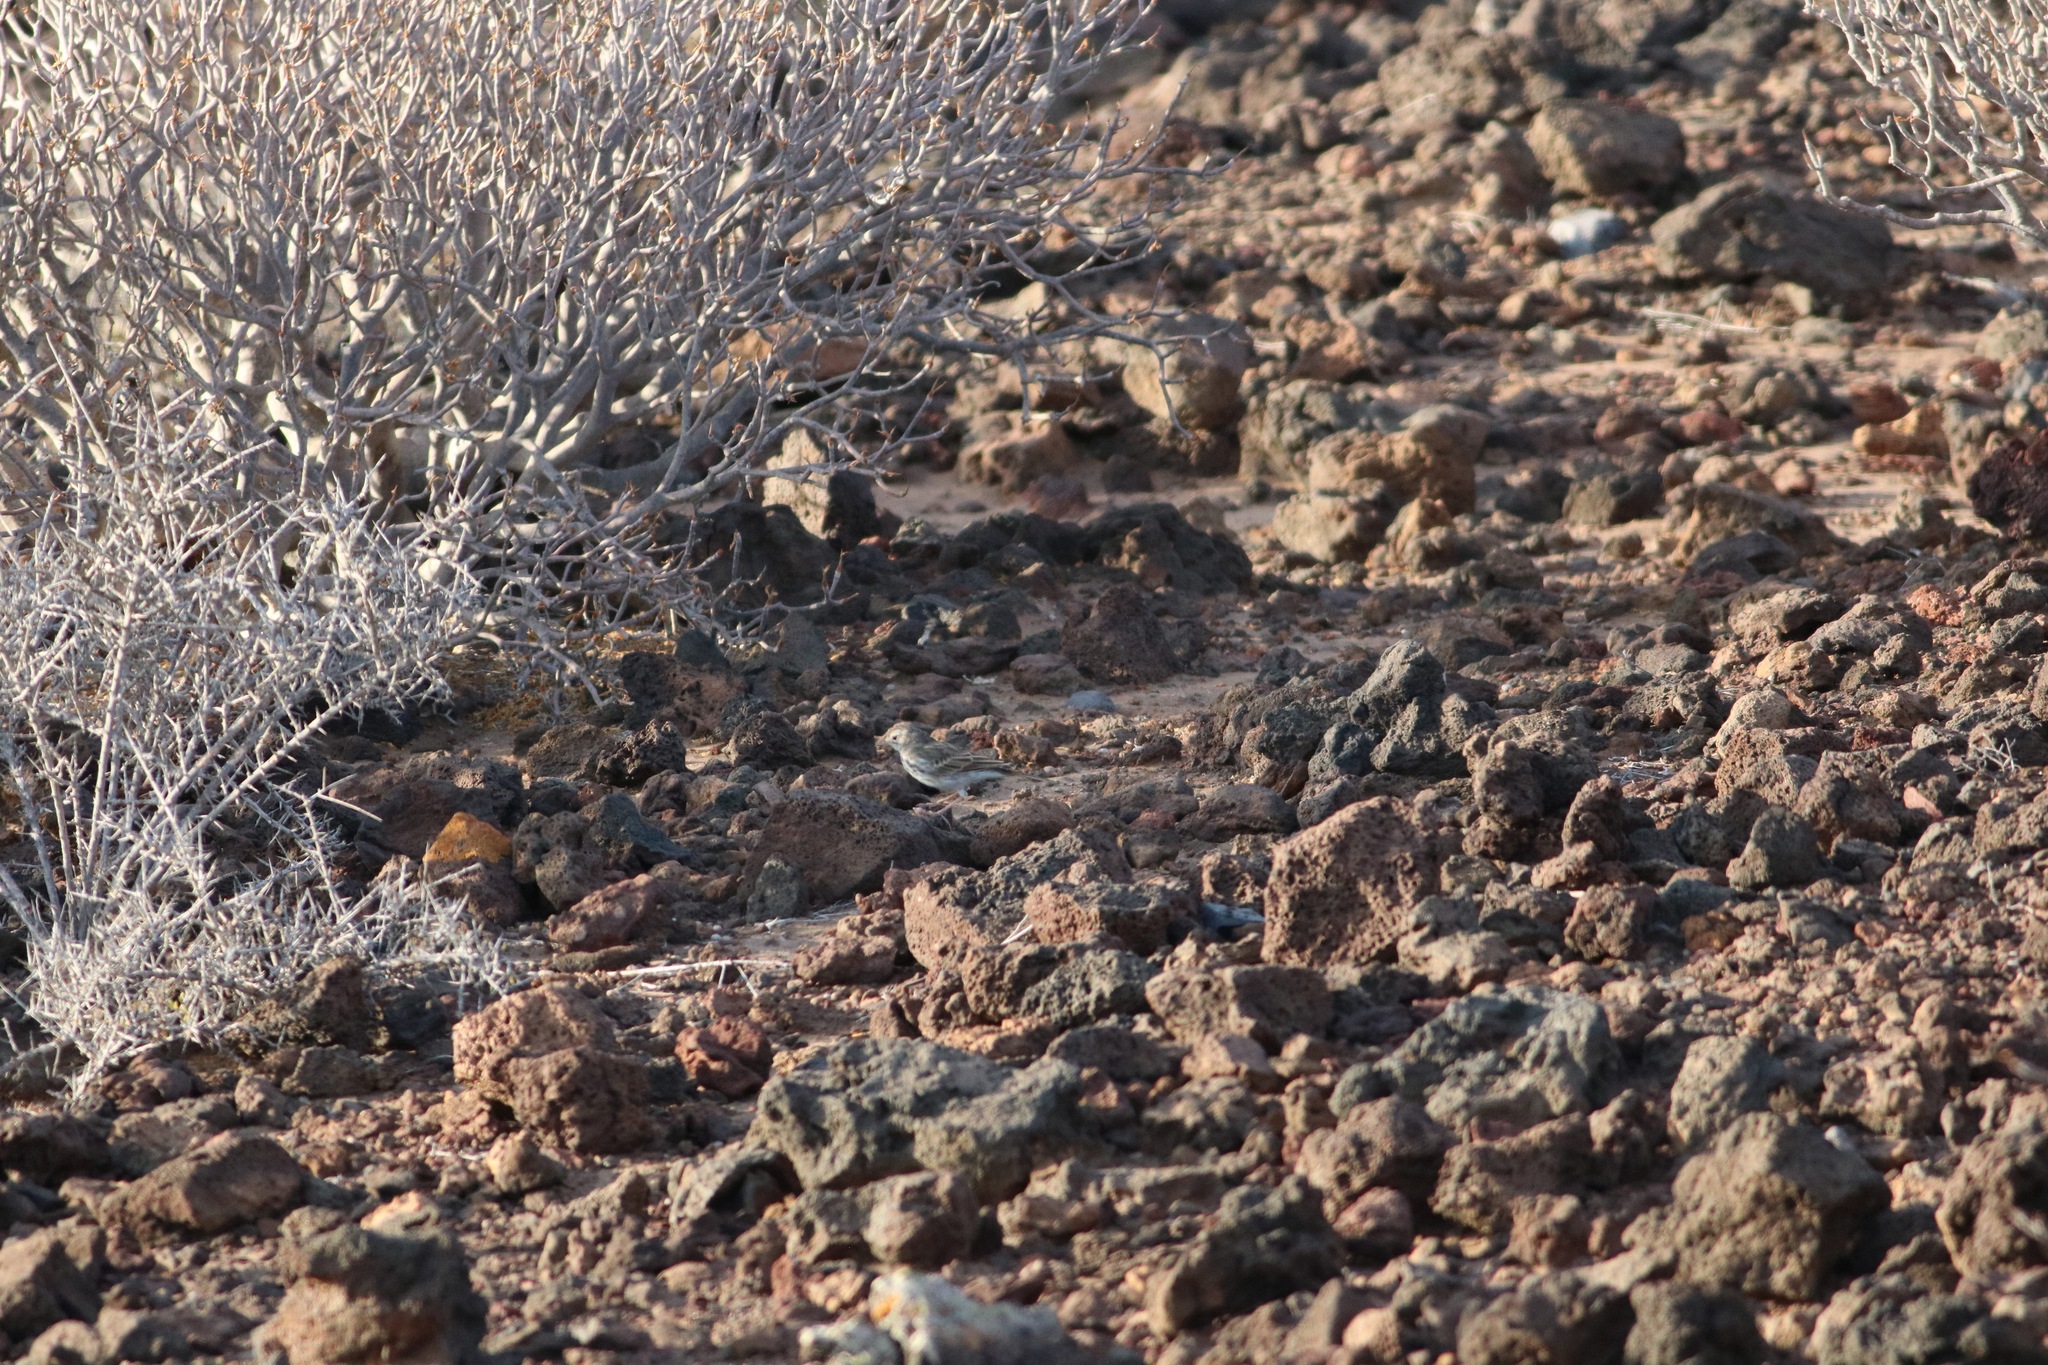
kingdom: Animalia
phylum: Chordata
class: Aves
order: Passeriformes
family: Motacillidae
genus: Anthus
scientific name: Anthus berthelotii
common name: Berthelot's pipit
